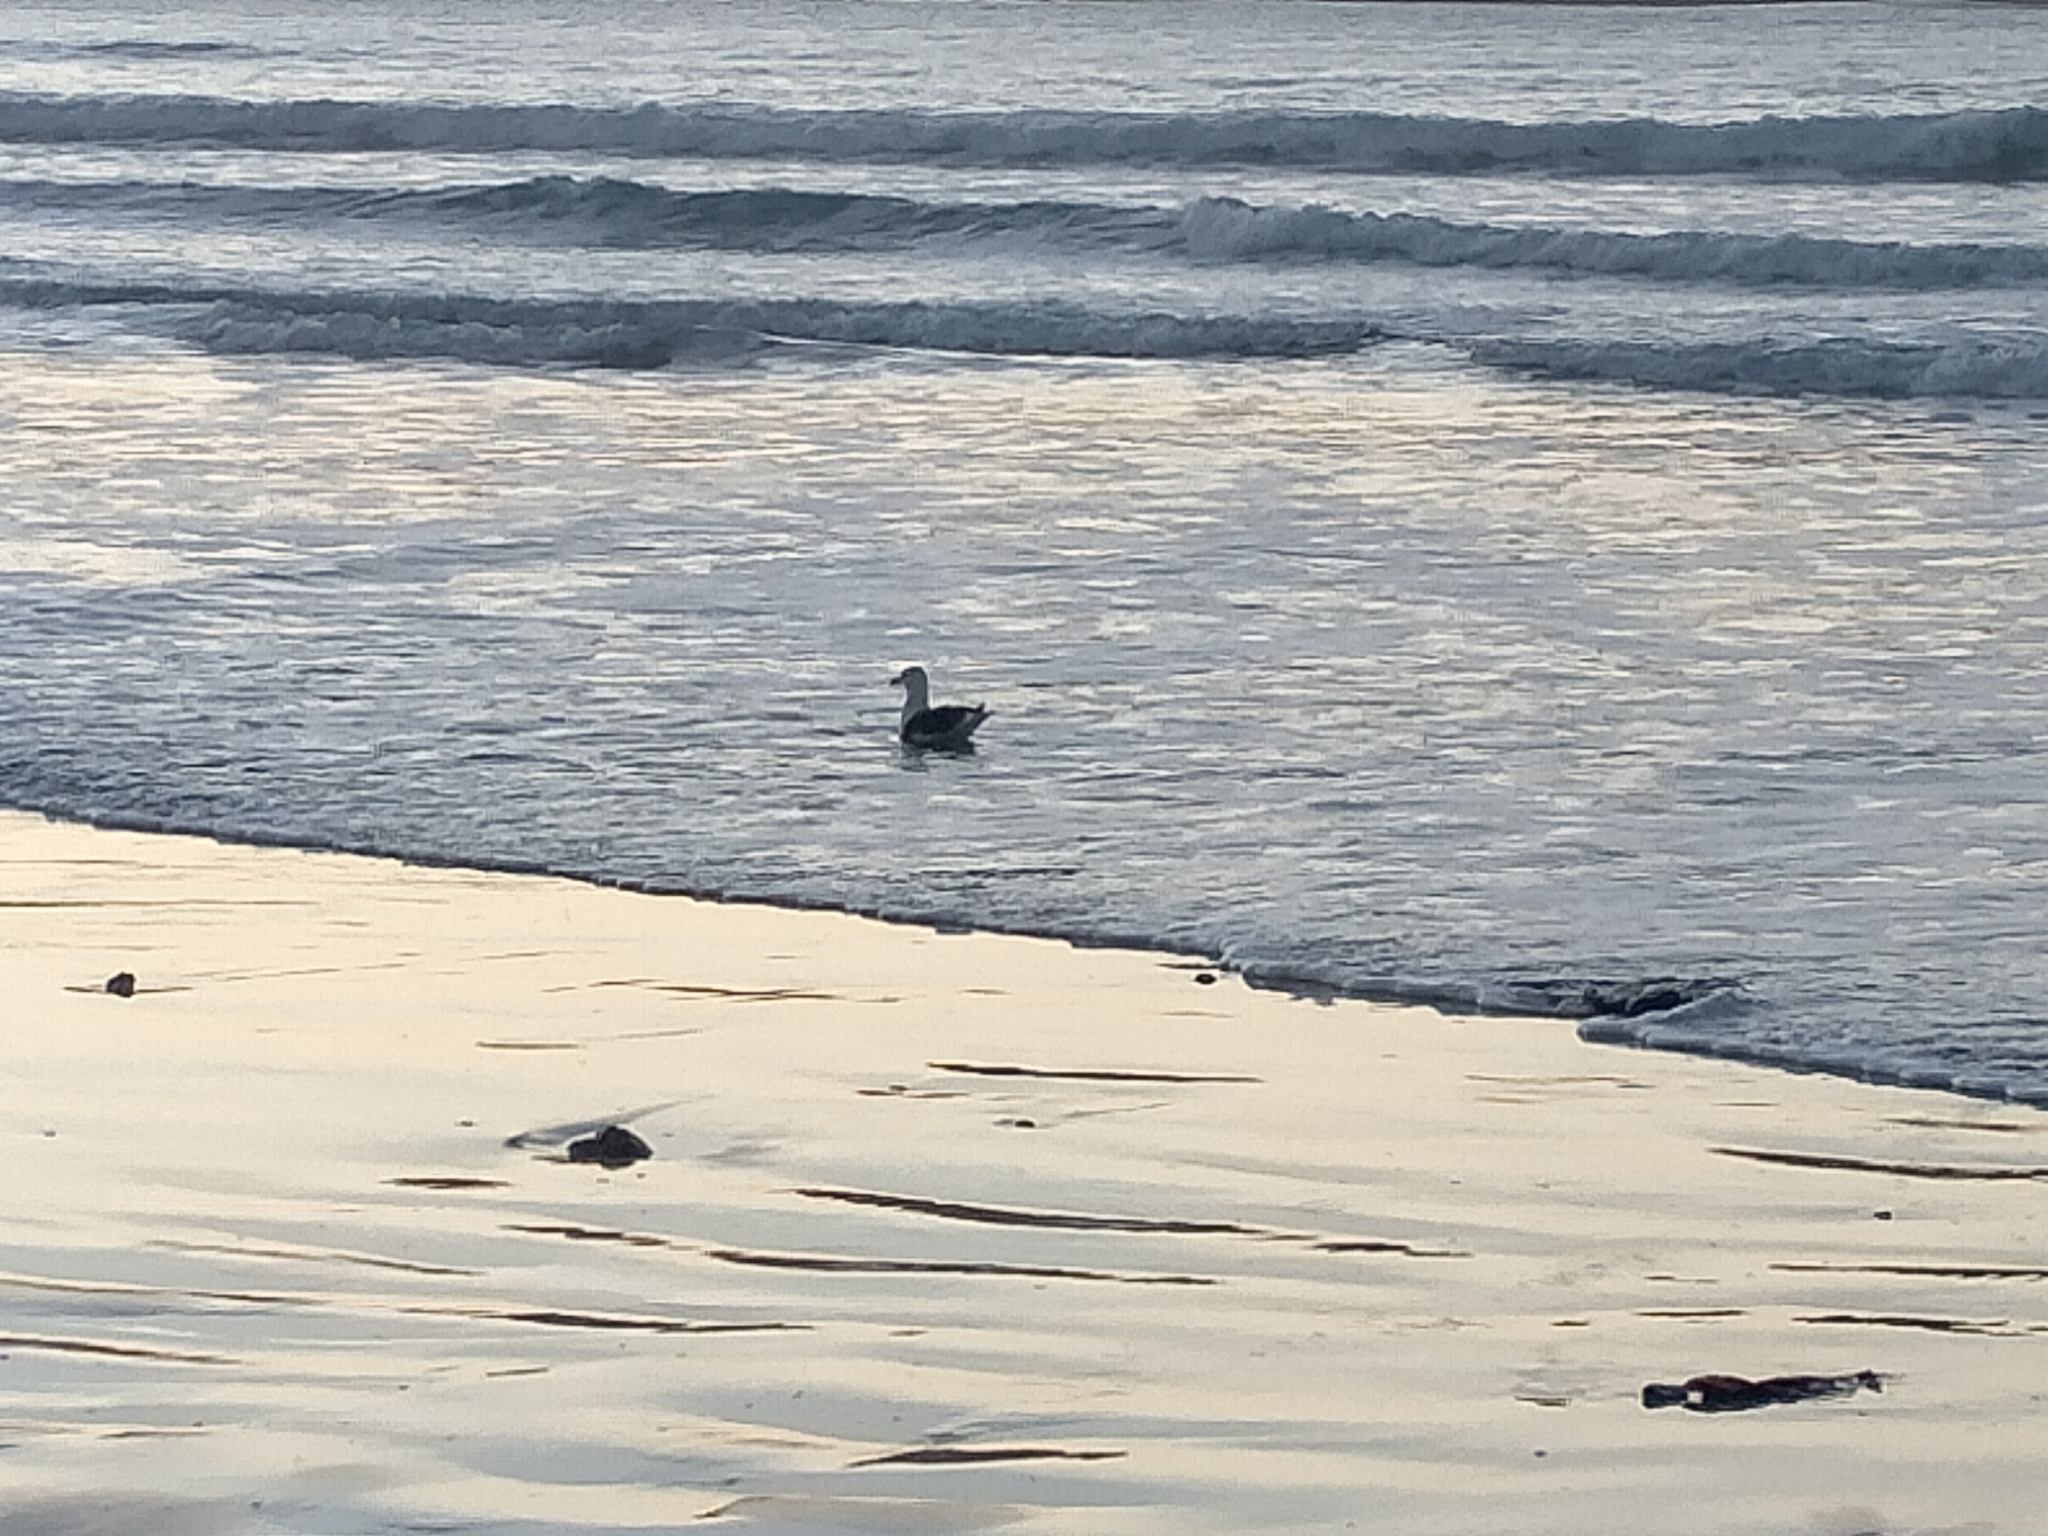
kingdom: Animalia
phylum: Chordata
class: Aves
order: Charadriiformes
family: Laridae
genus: Larus
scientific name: Larus dominicanus
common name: Kelp gull
